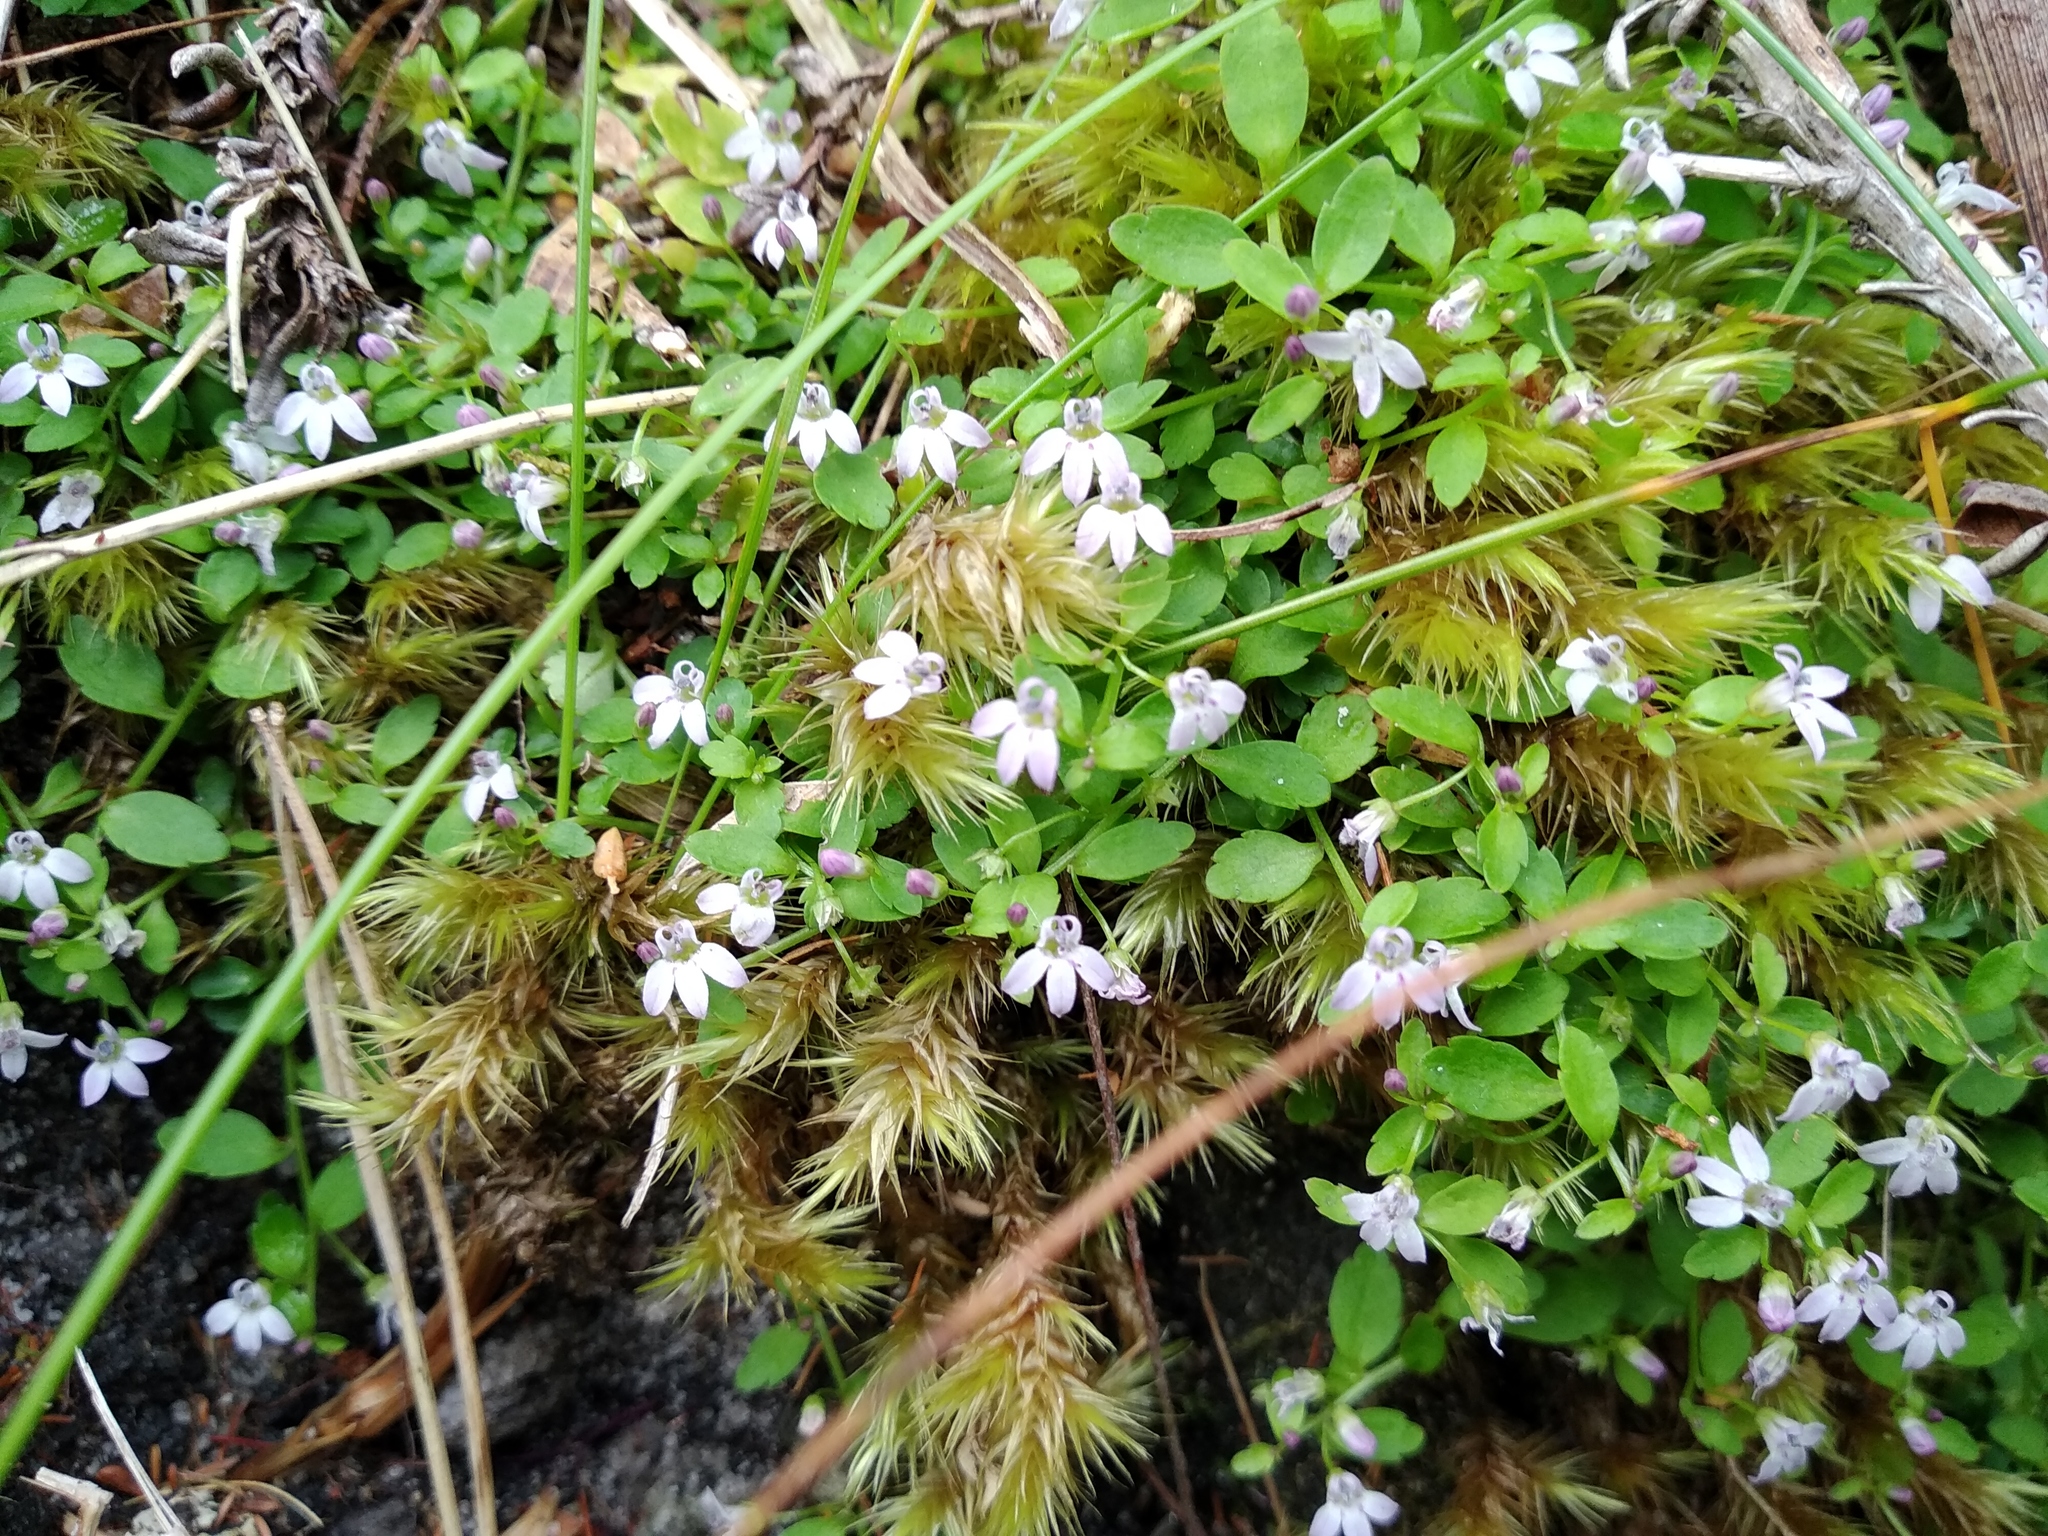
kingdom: Plantae
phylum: Tracheophyta
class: Magnoliopsida
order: Asterales
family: Campanulaceae
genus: Unigenes
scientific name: Unigenes humifusa
